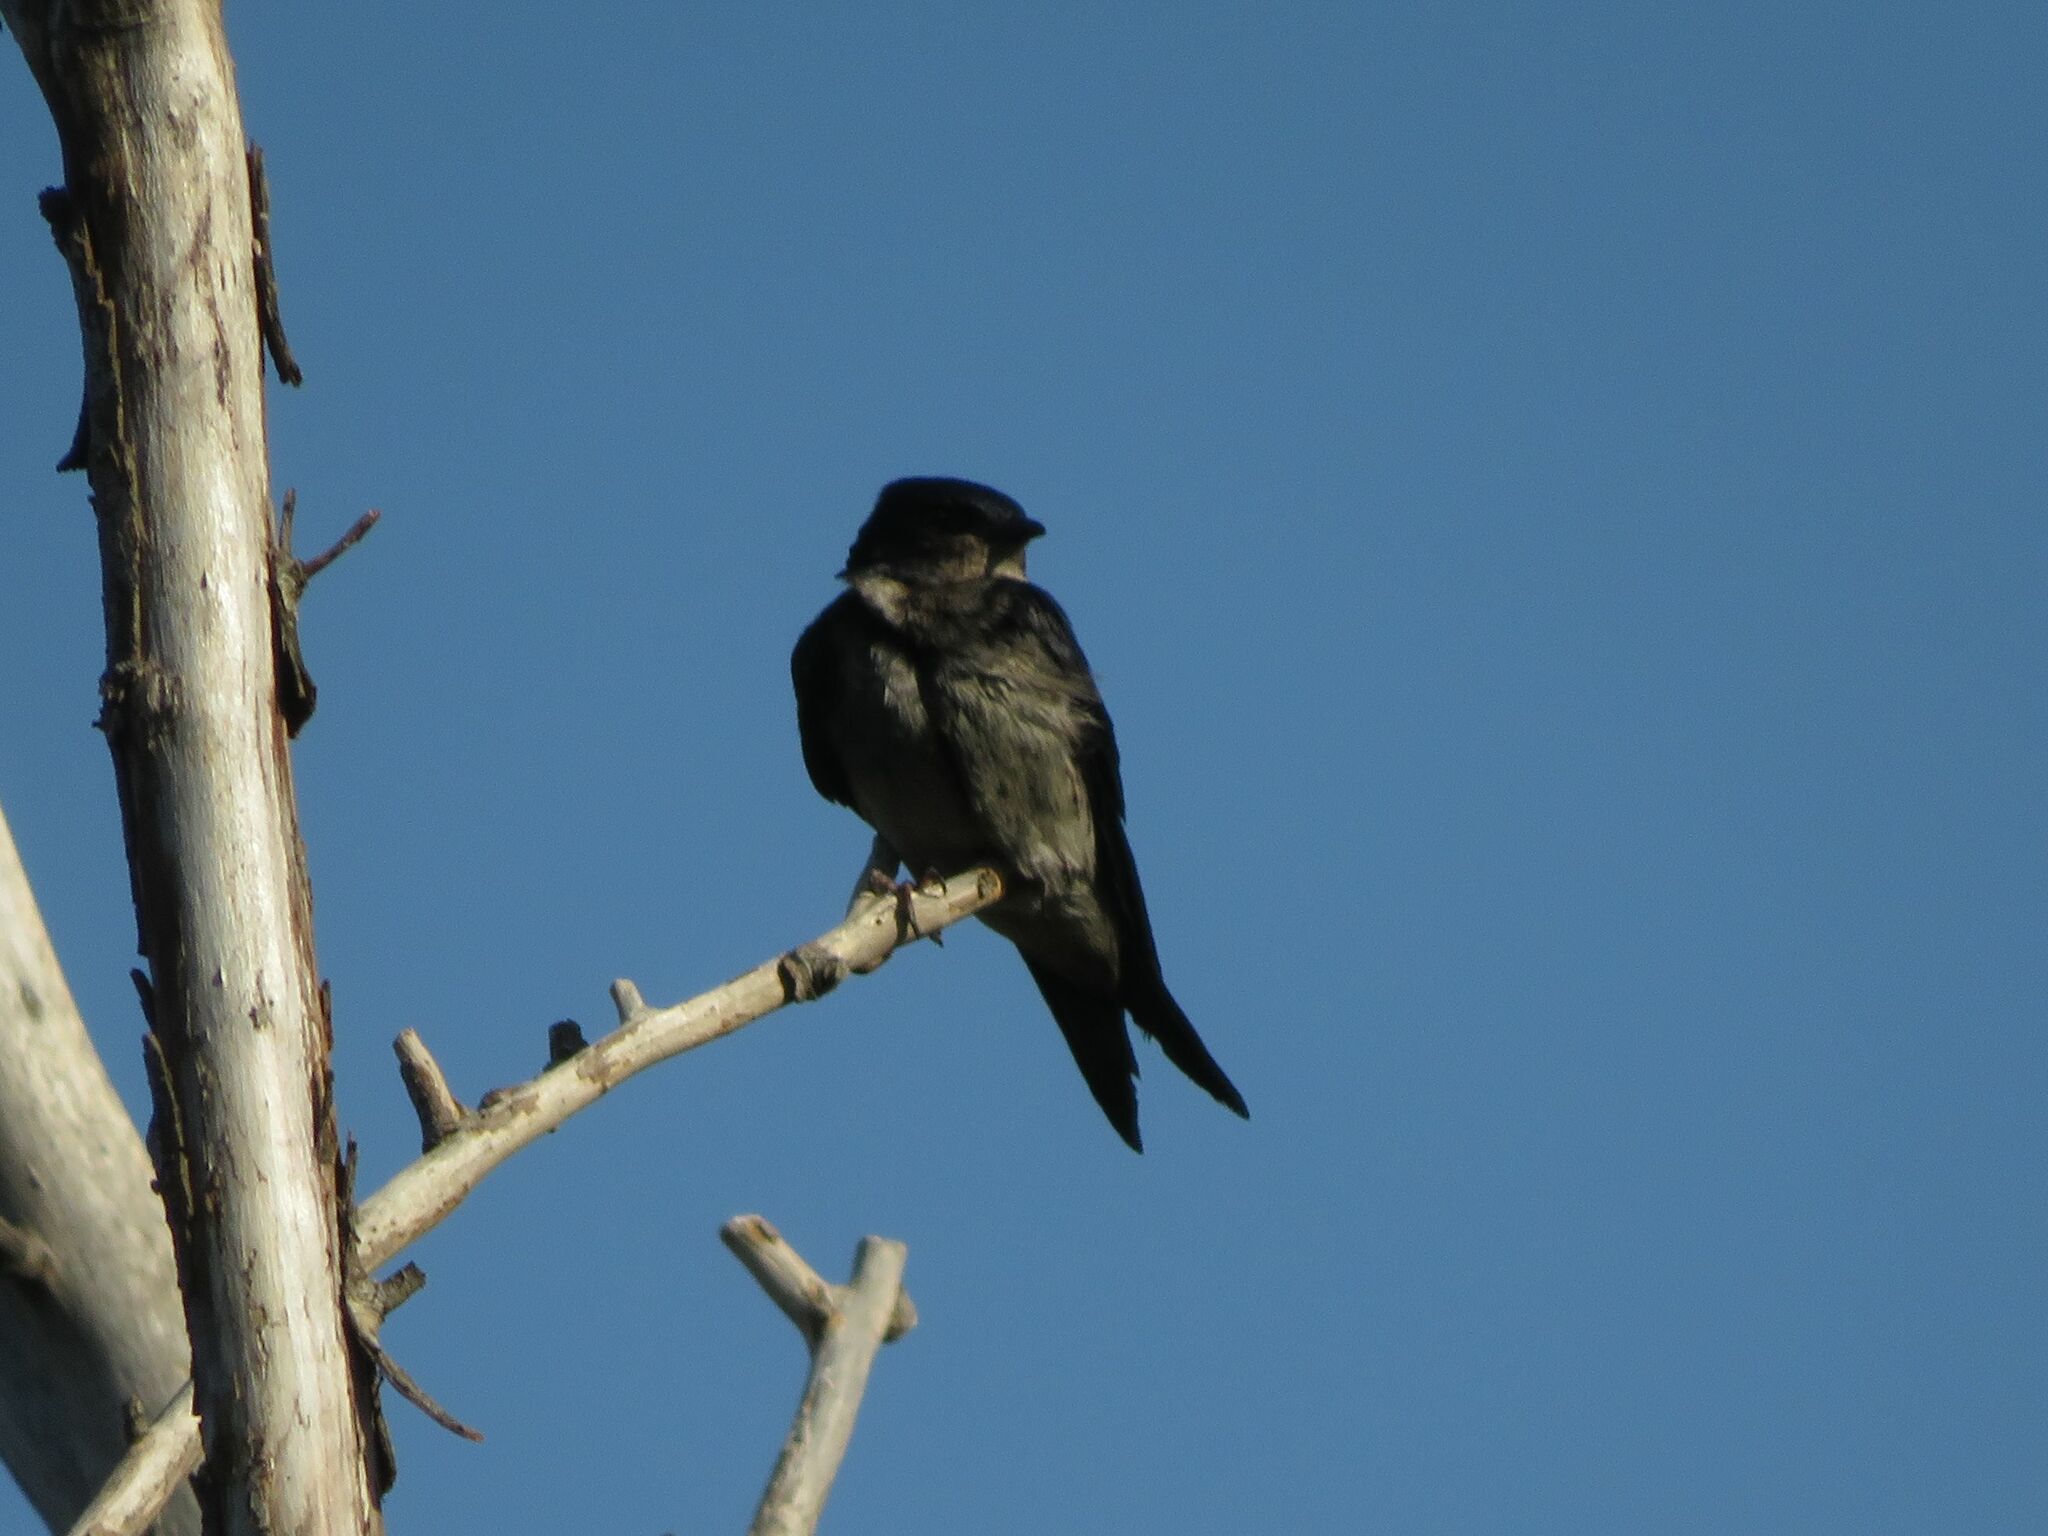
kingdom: Animalia
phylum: Chordata
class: Aves
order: Passeriformes
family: Hirundinidae
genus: Progne
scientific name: Progne elegans
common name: Southern martin
